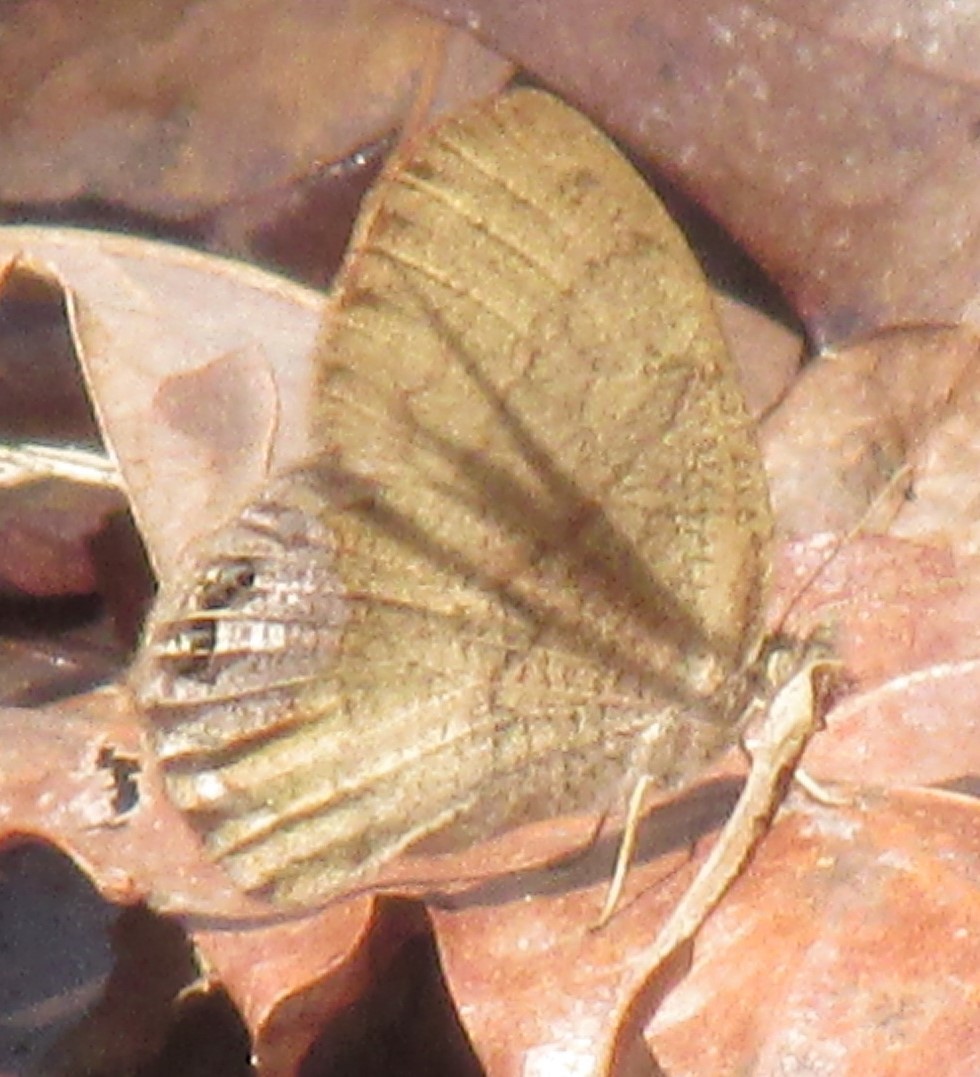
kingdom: Animalia
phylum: Arthropoda
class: Insecta
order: Lepidoptera
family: Nymphalidae
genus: Euptychia
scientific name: Euptychia cornelius
